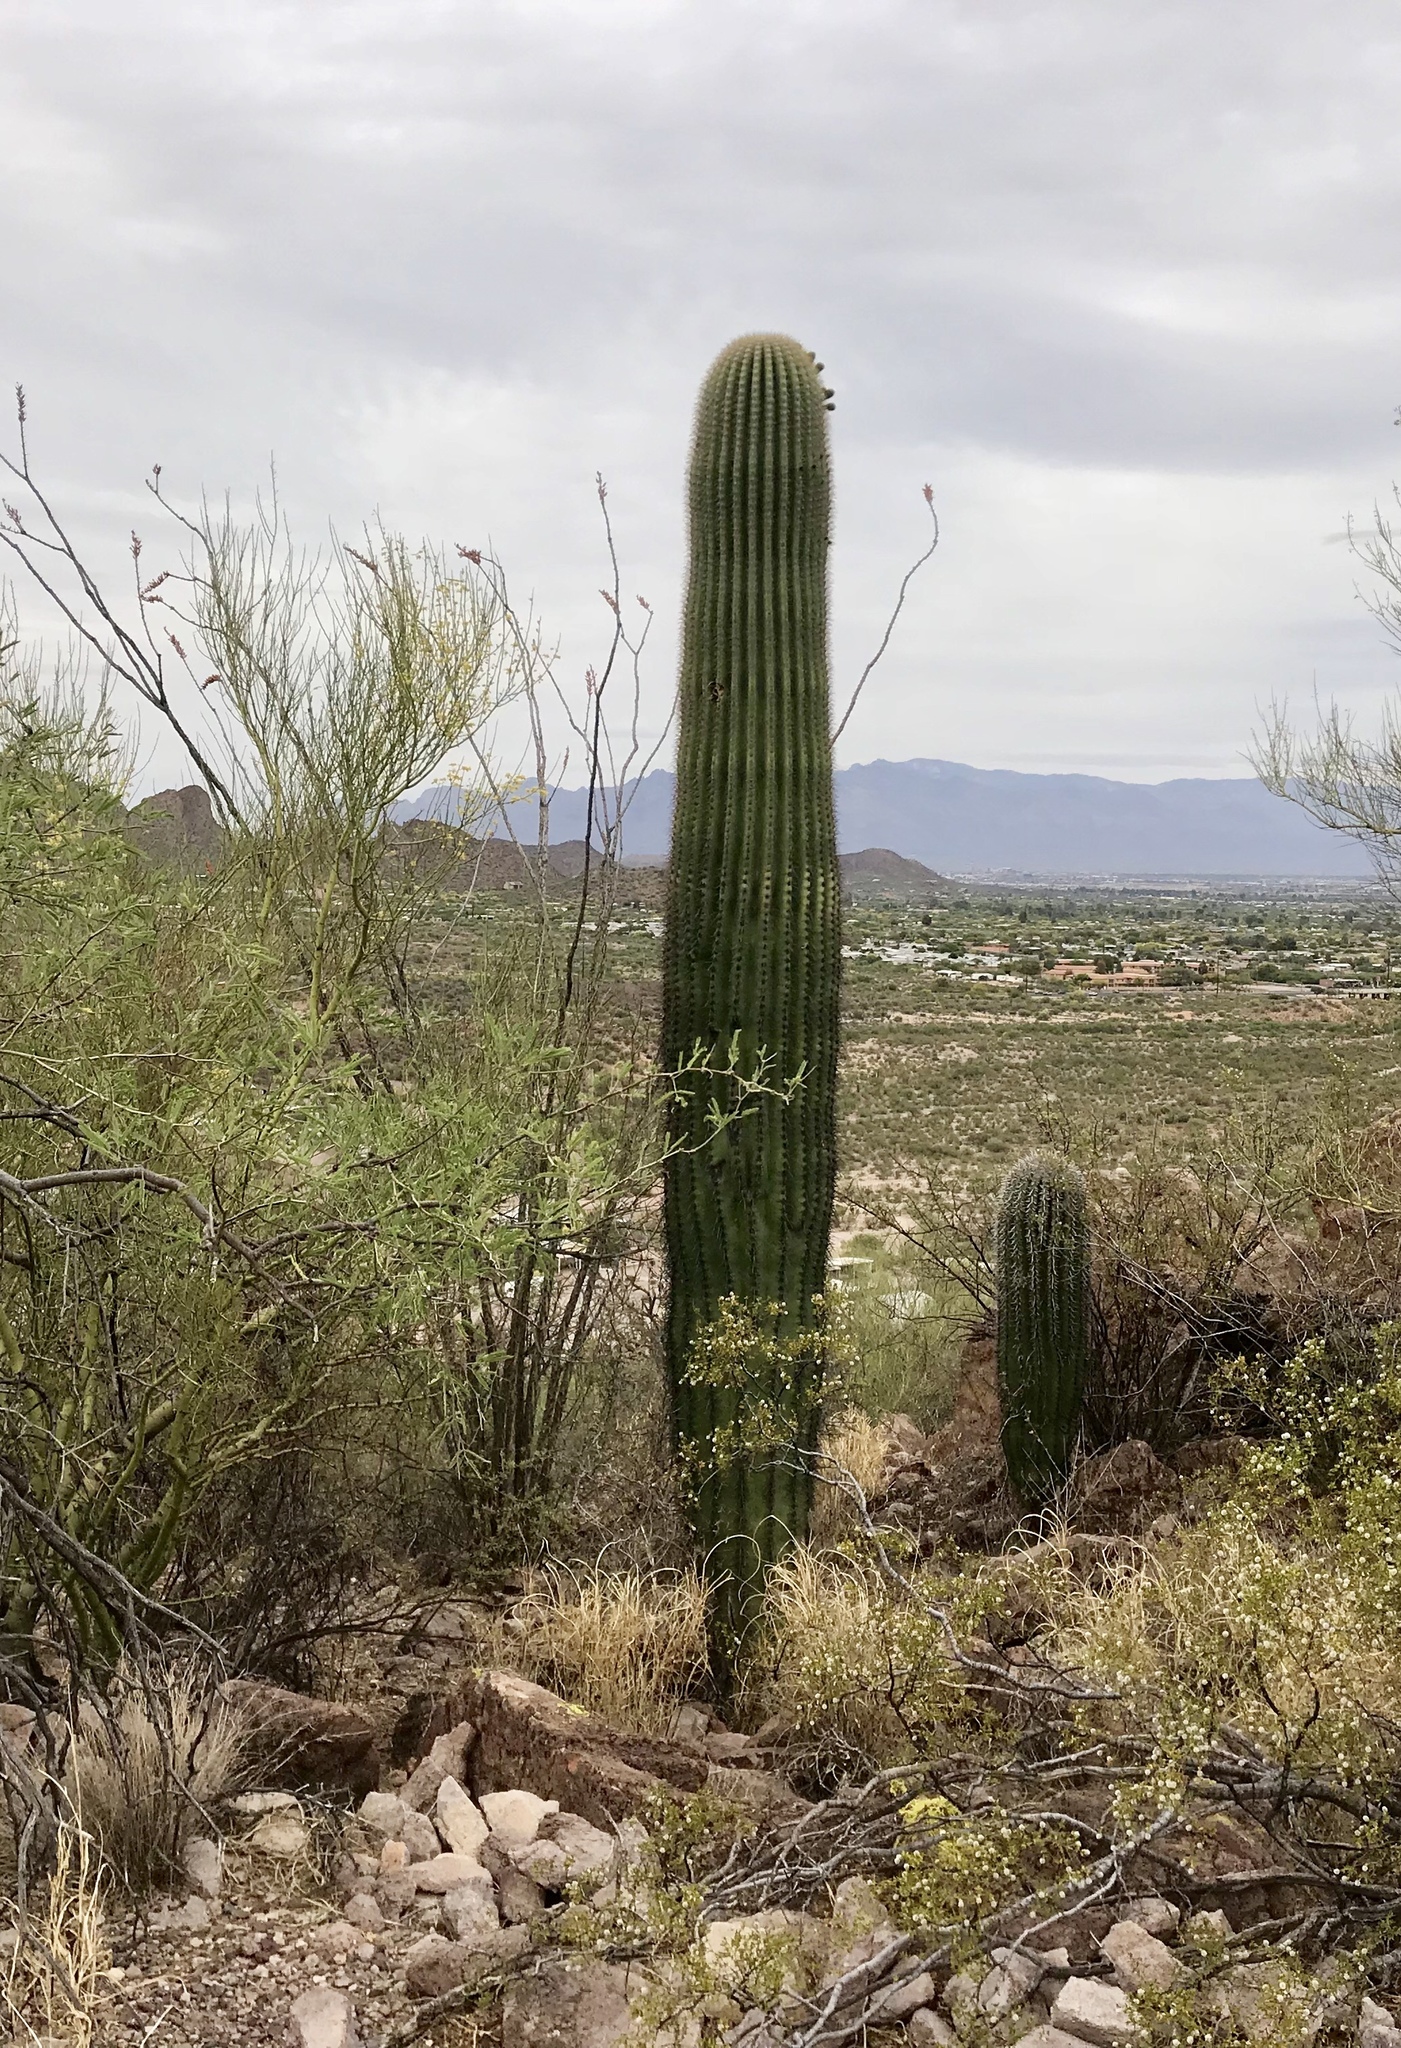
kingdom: Plantae
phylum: Tracheophyta
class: Magnoliopsida
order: Caryophyllales
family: Cactaceae
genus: Carnegiea
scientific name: Carnegiea gigantea
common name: Saguaro
